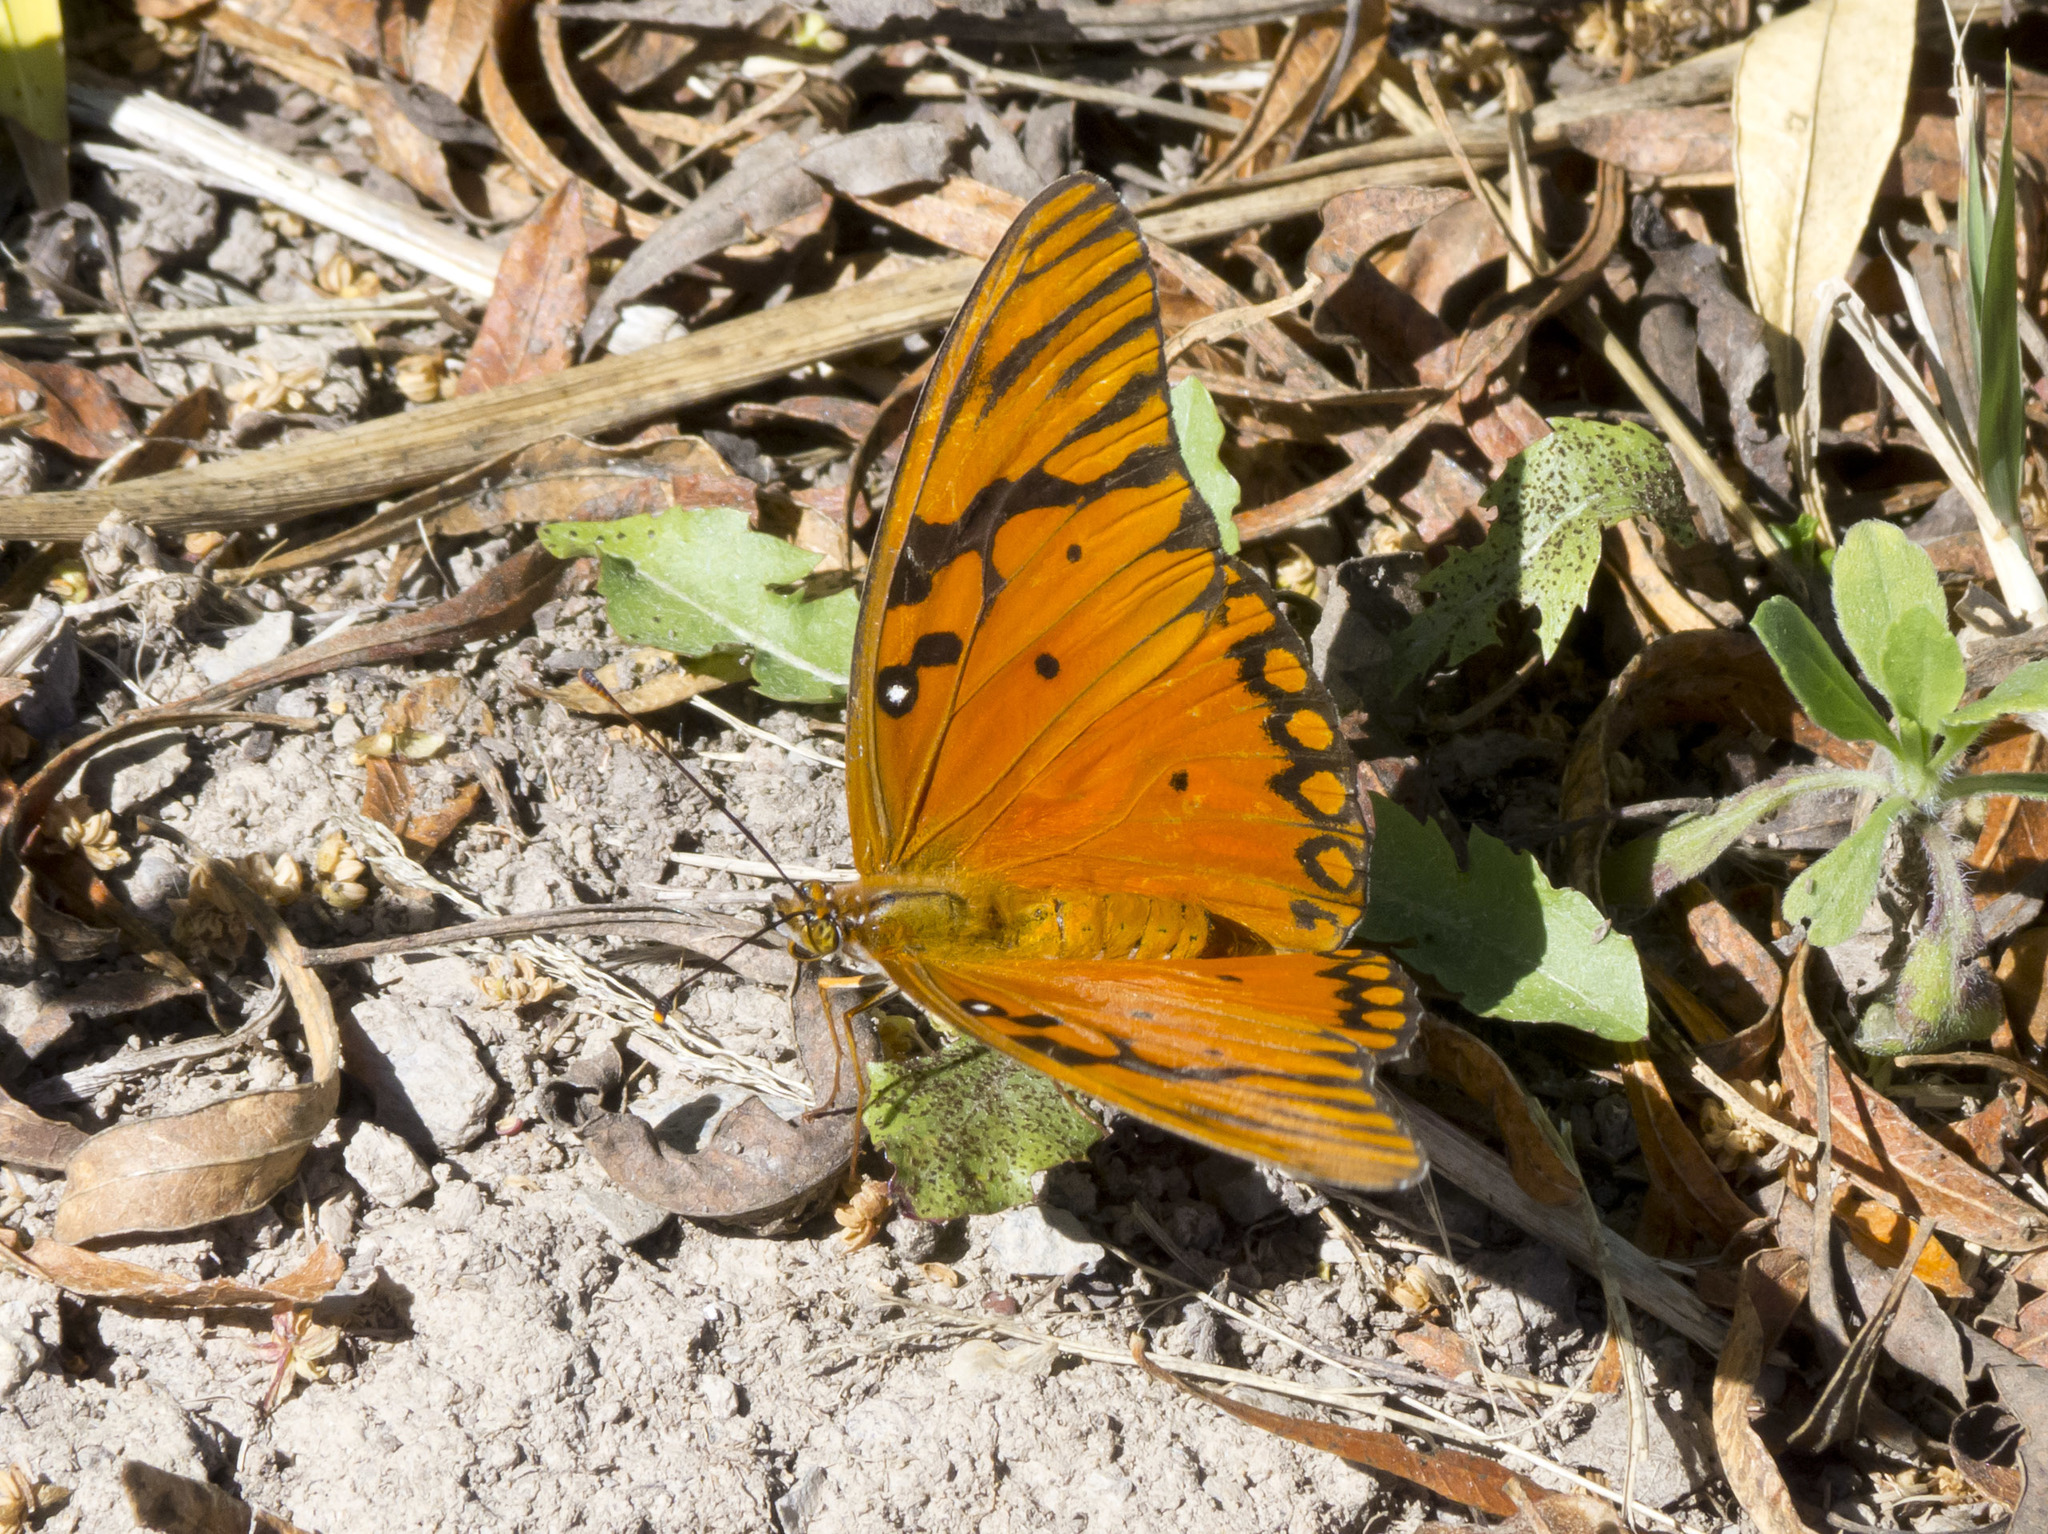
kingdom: Animalia
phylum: Arthropoda
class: Insecta
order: Lepidoptera
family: Nymphalidae
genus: Dione
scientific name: Dione vanillae
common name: Gulf fritillary
